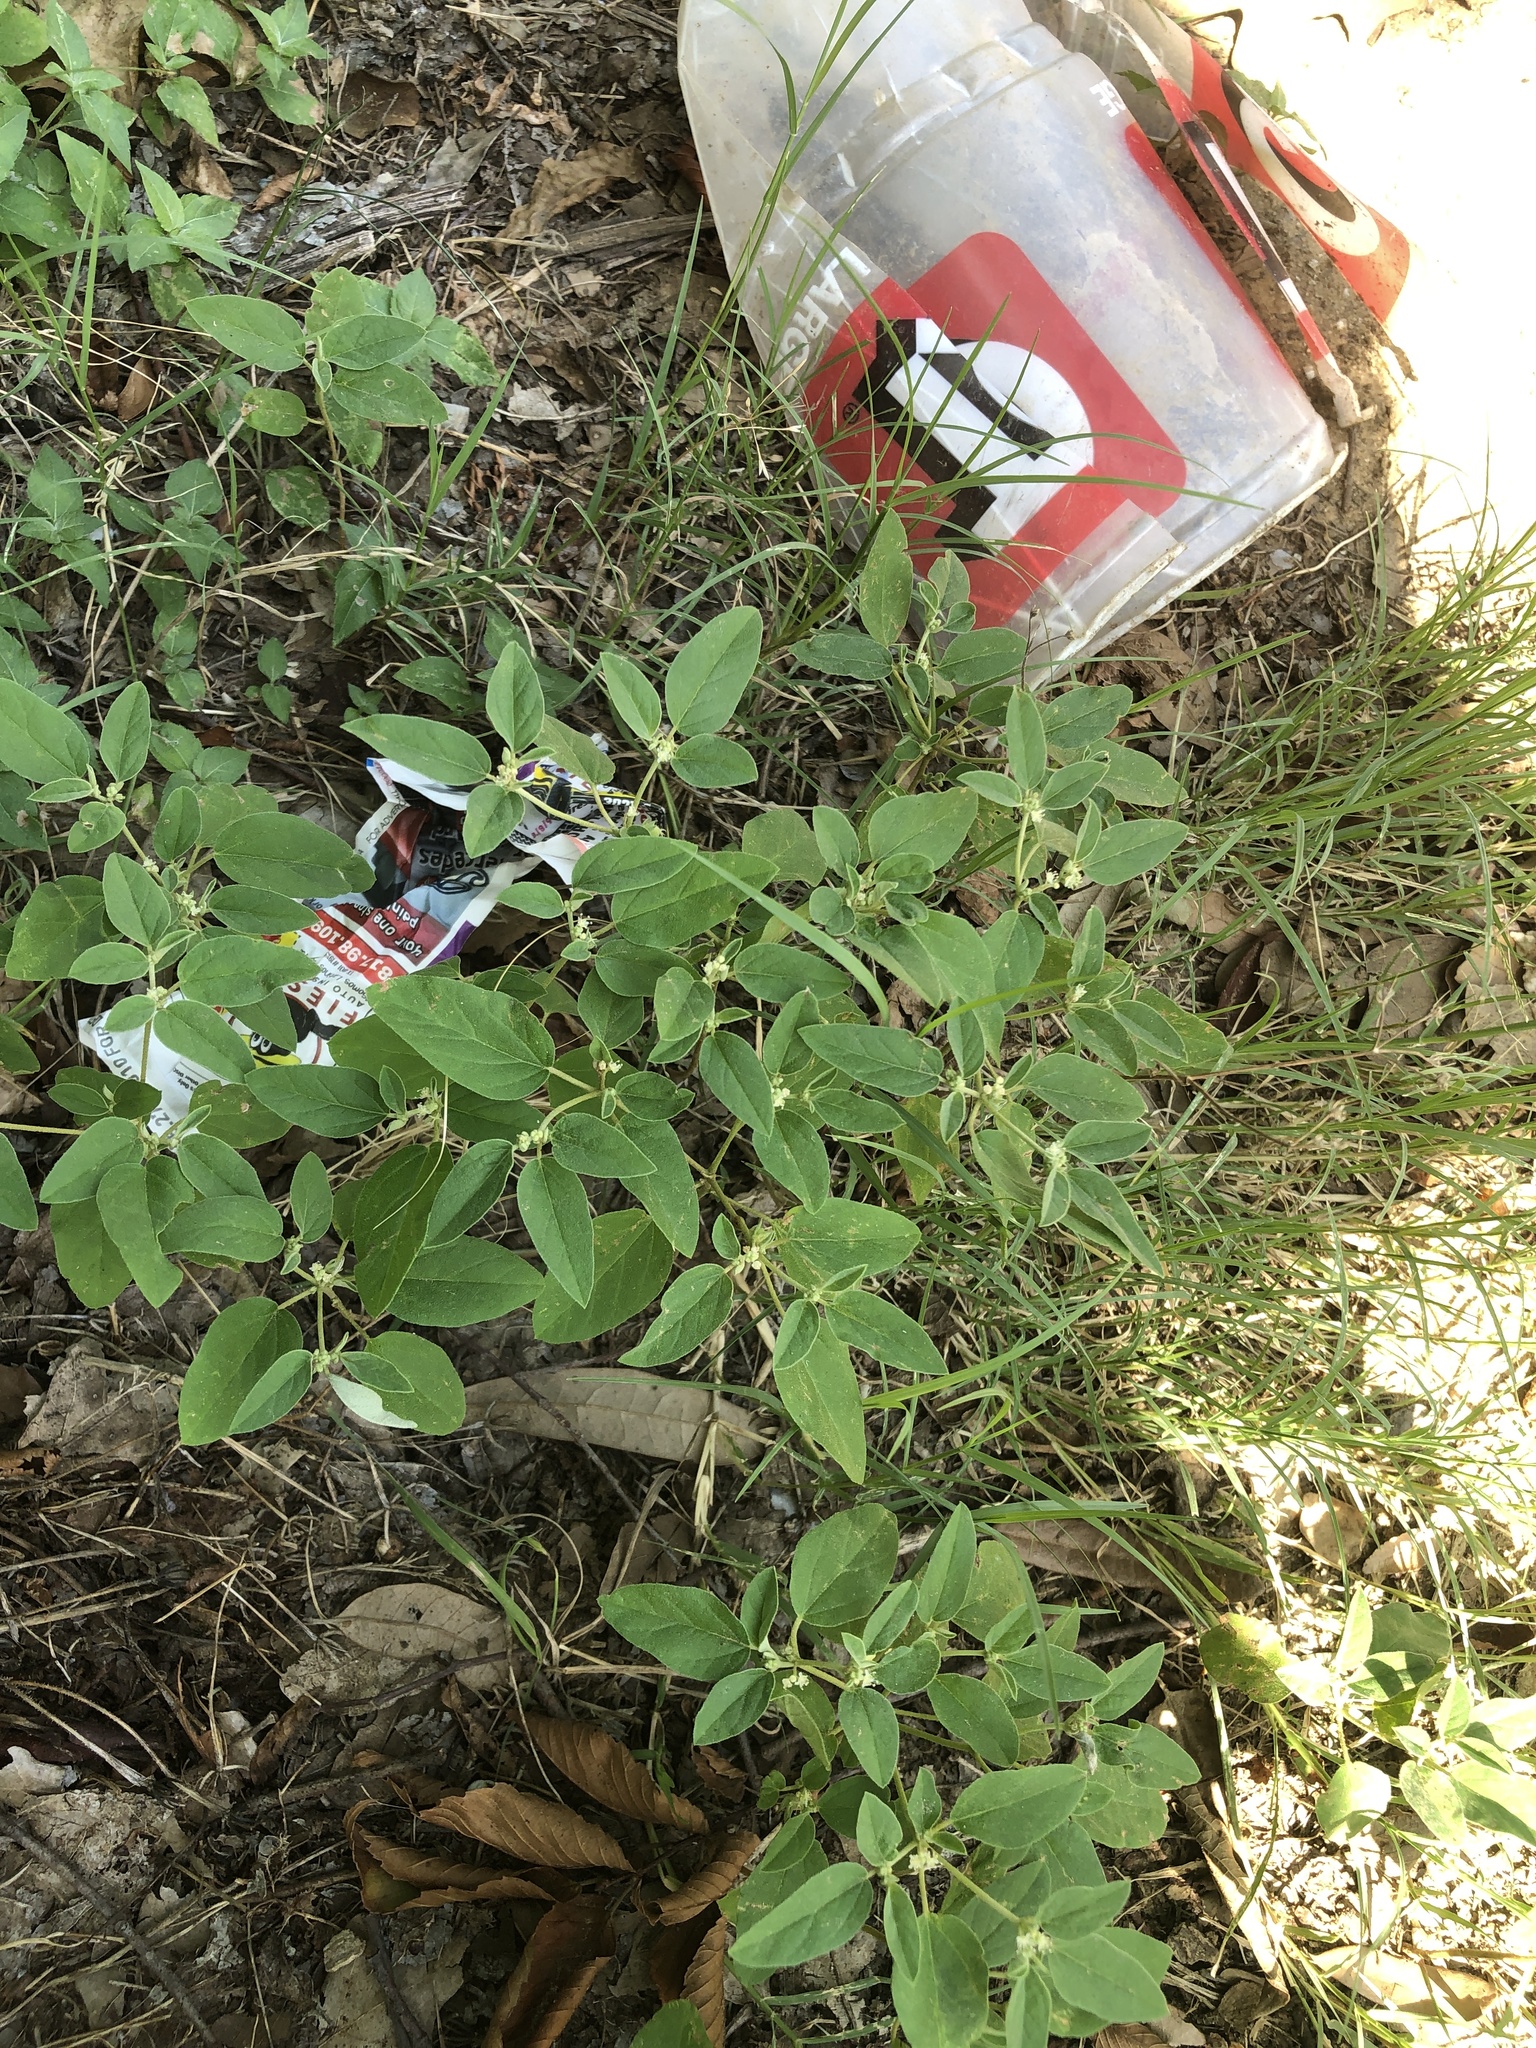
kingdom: Plantae
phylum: Tracheophyta
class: Magnoliopsida
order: Malpighiales
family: Euphorbiaceae
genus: Croton
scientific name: Croton monanthogynus
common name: One-seed croton
